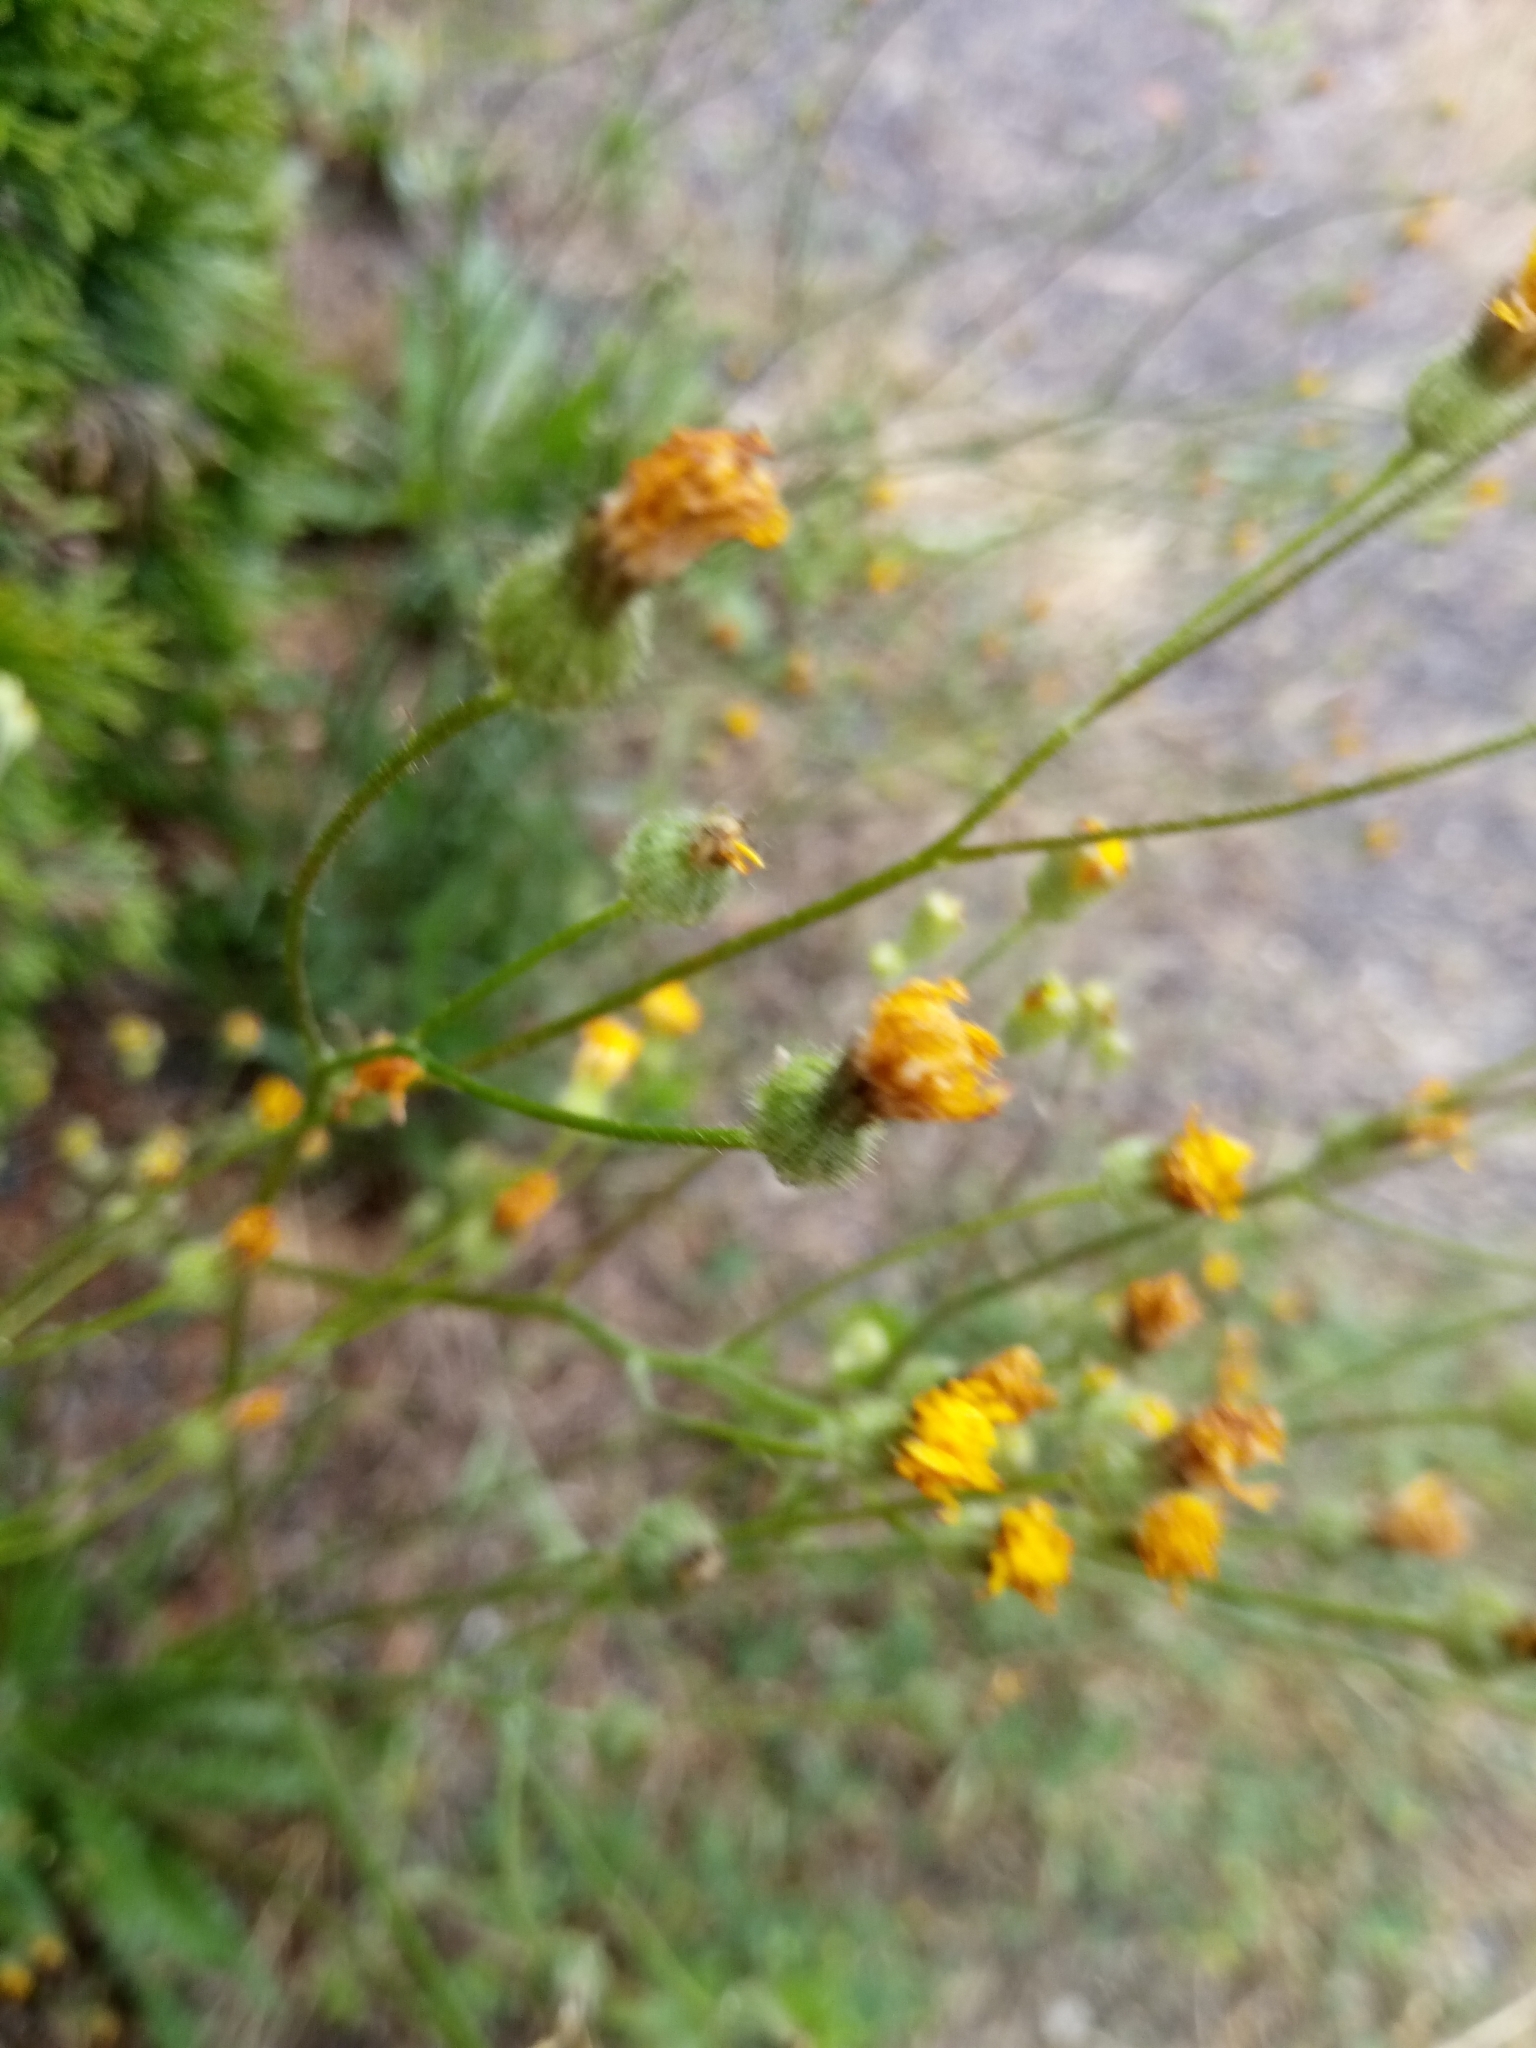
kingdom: Plantae
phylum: Tracheophyta
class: Magnoliopsida
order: Asterales
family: Asteraceae
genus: Crepis
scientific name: Crepis capillaris
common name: Smooth hawksbeard
